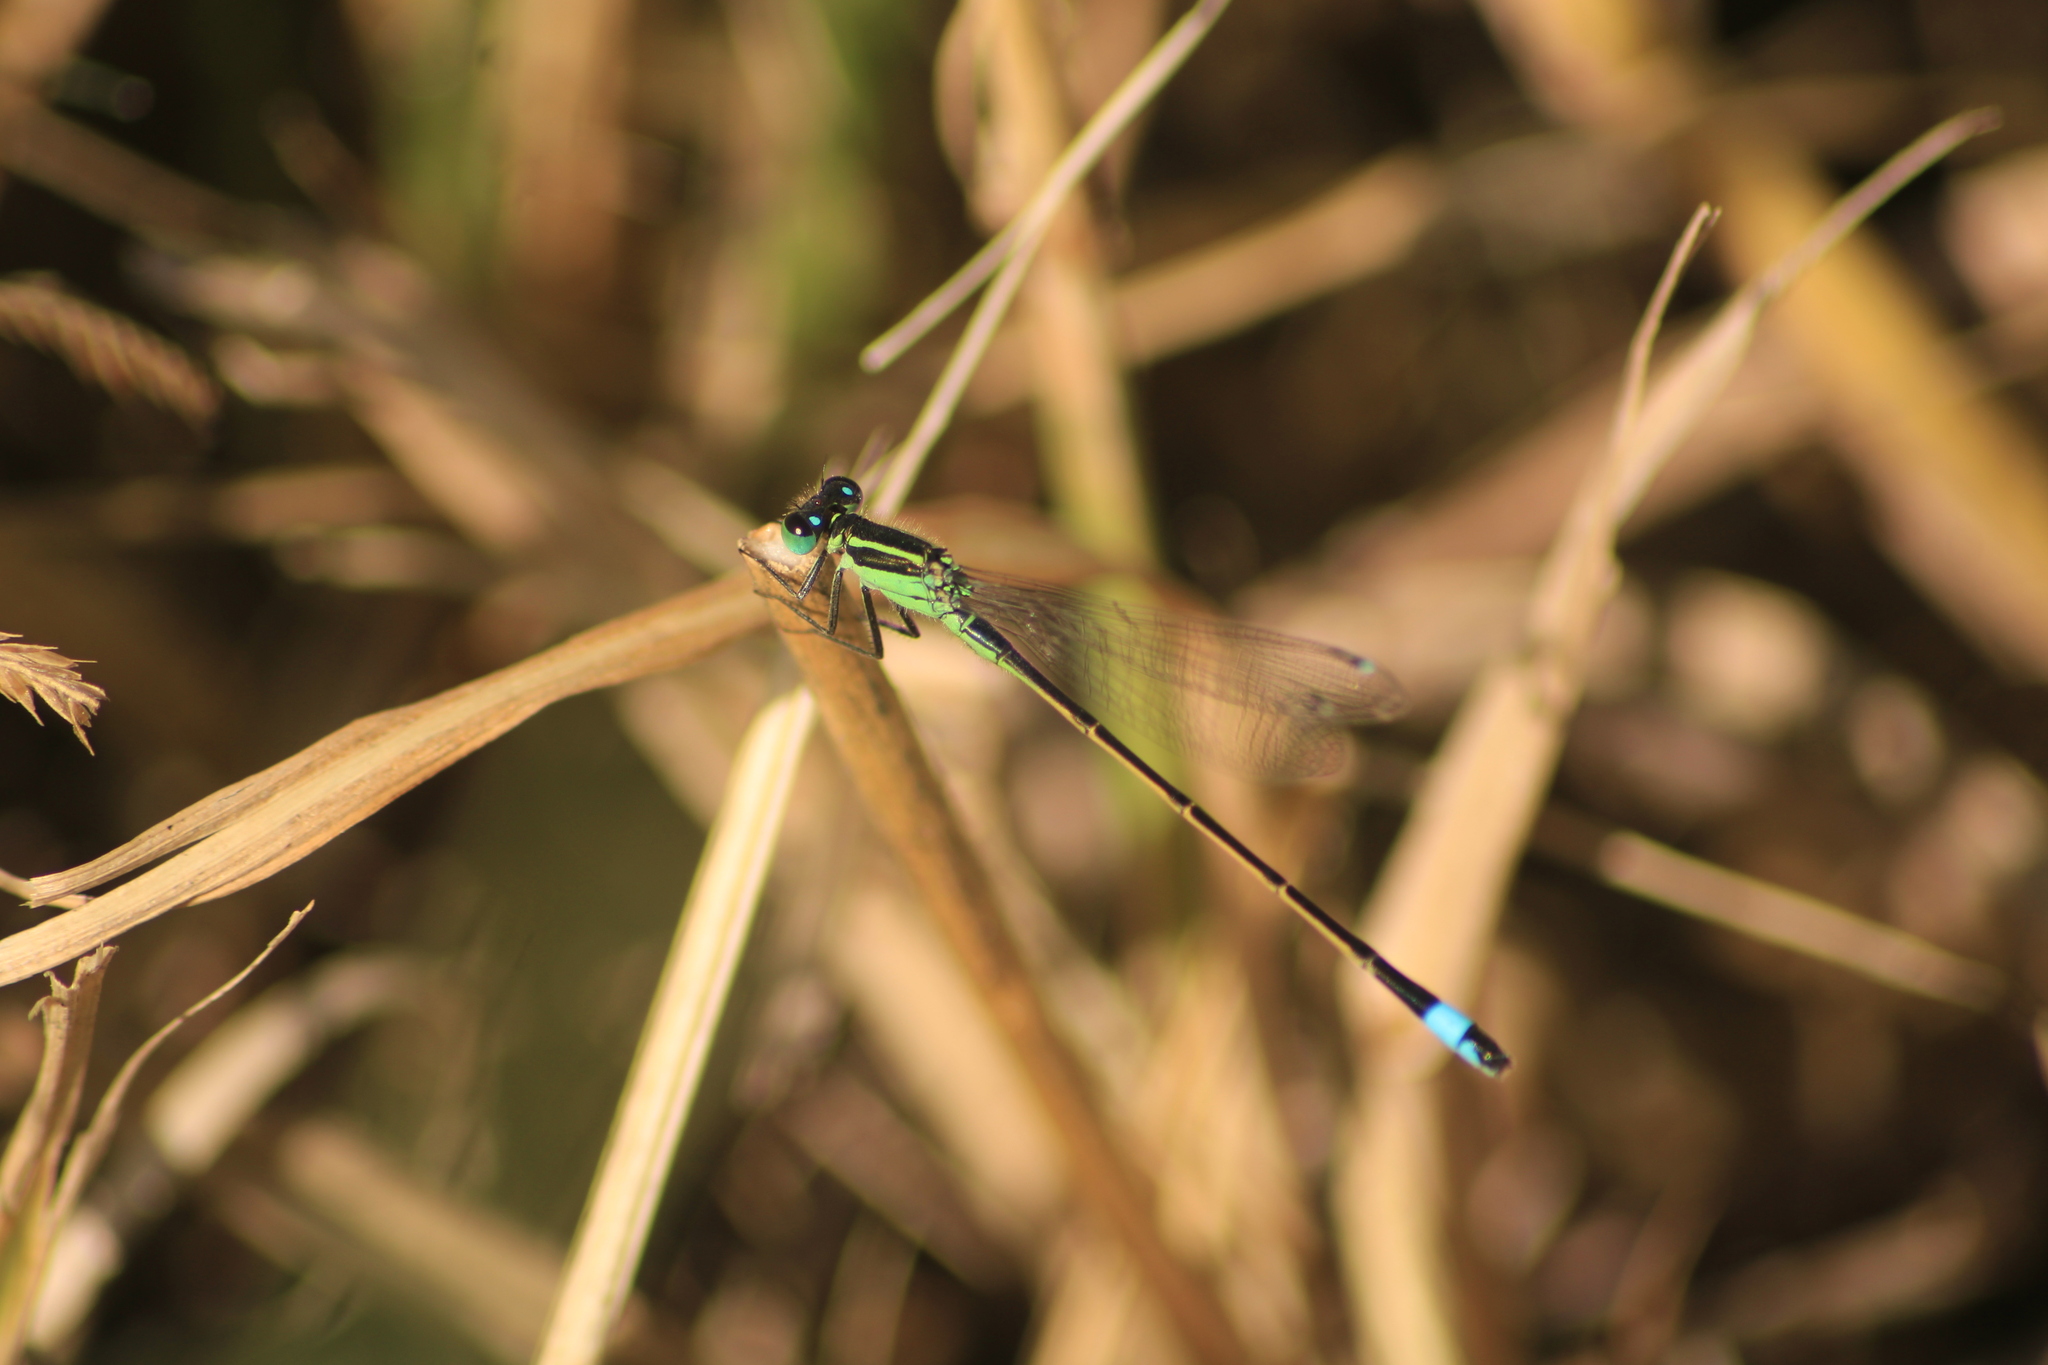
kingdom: Animalia
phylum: Arthropoda
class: Insecta
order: Odonata
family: Coenagrionidae
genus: Ischnura
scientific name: Ischnura ramburii
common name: Rambur's forktail
